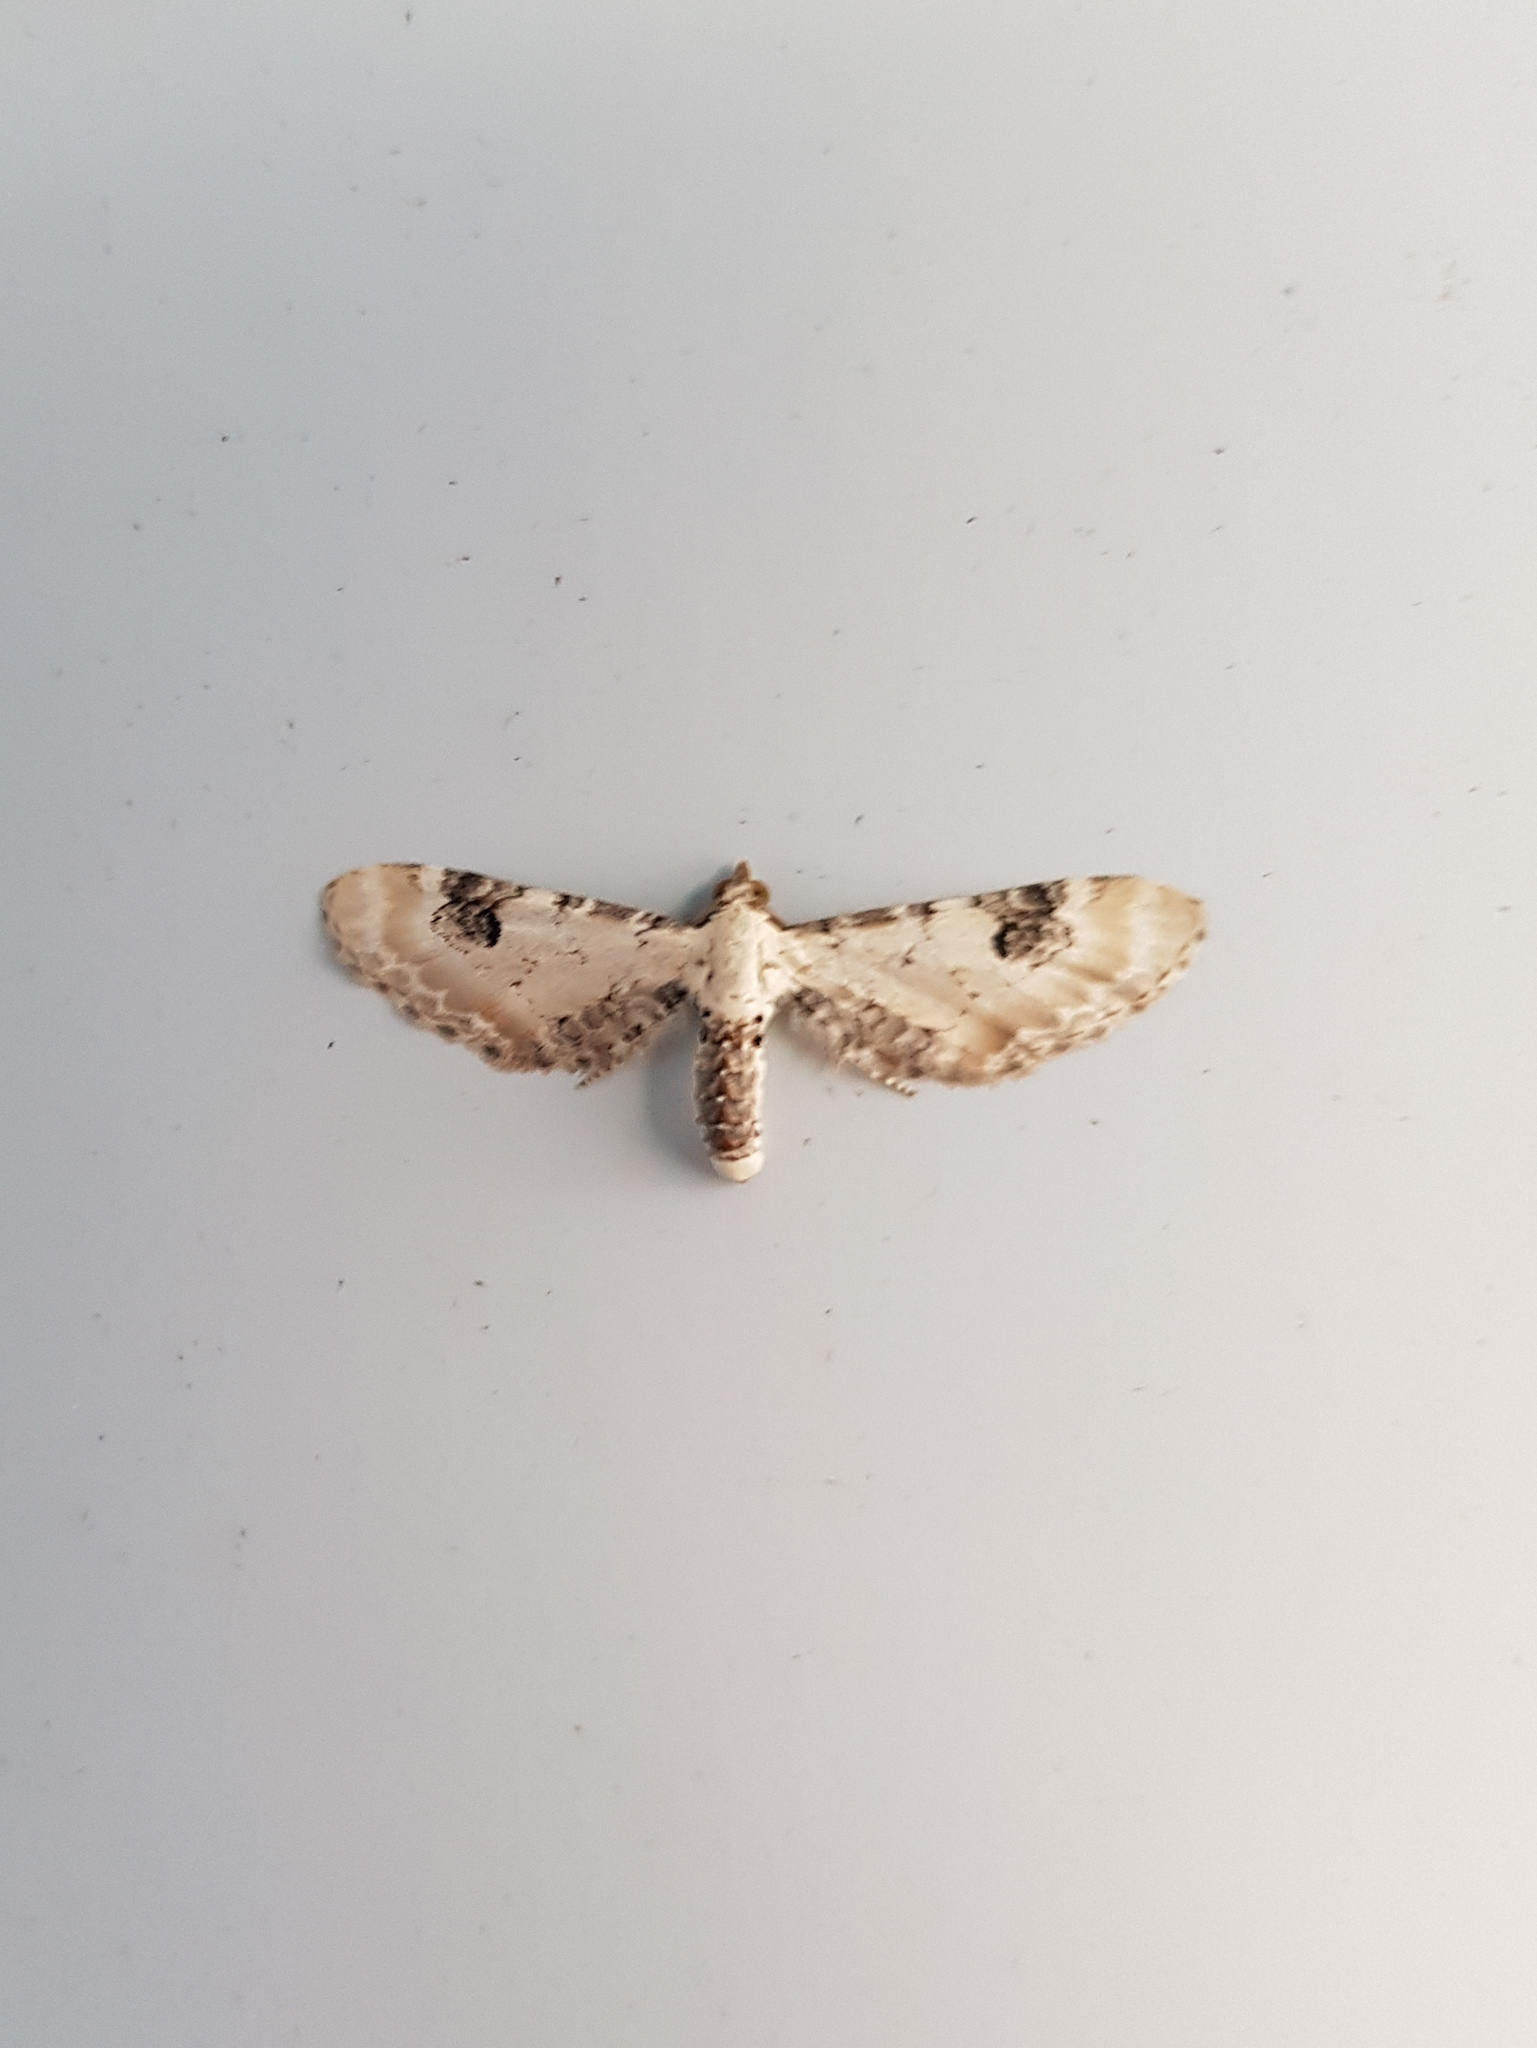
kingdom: Animalia
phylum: Arthropoda
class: Insecta
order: Lepidoptera
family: Geometridae
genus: Eupithecia
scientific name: Eupithecia centaureata
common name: Lime-speck pug
